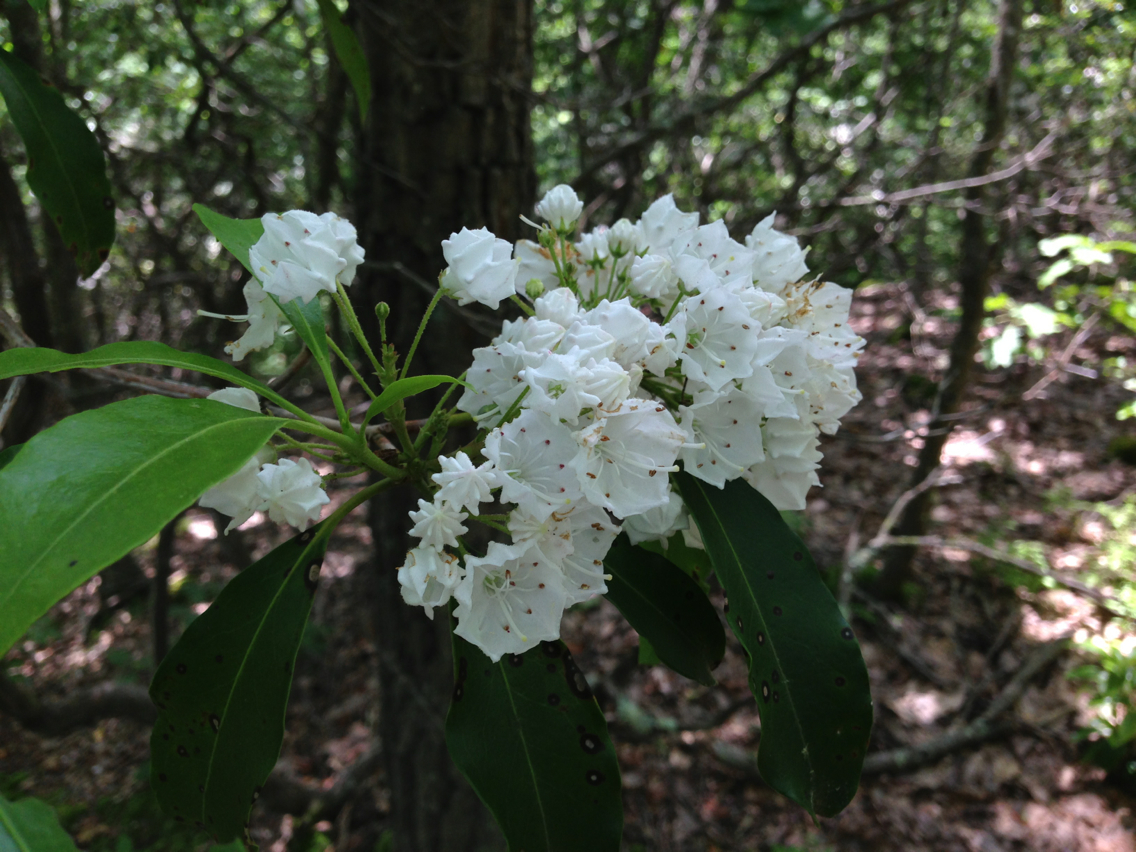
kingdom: Plantae
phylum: Tracheophyta
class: Magnoliopsida
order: Ericales
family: Ericaceae
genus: Kalmia
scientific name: Kalmia latifolia
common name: Mountain-laurel
